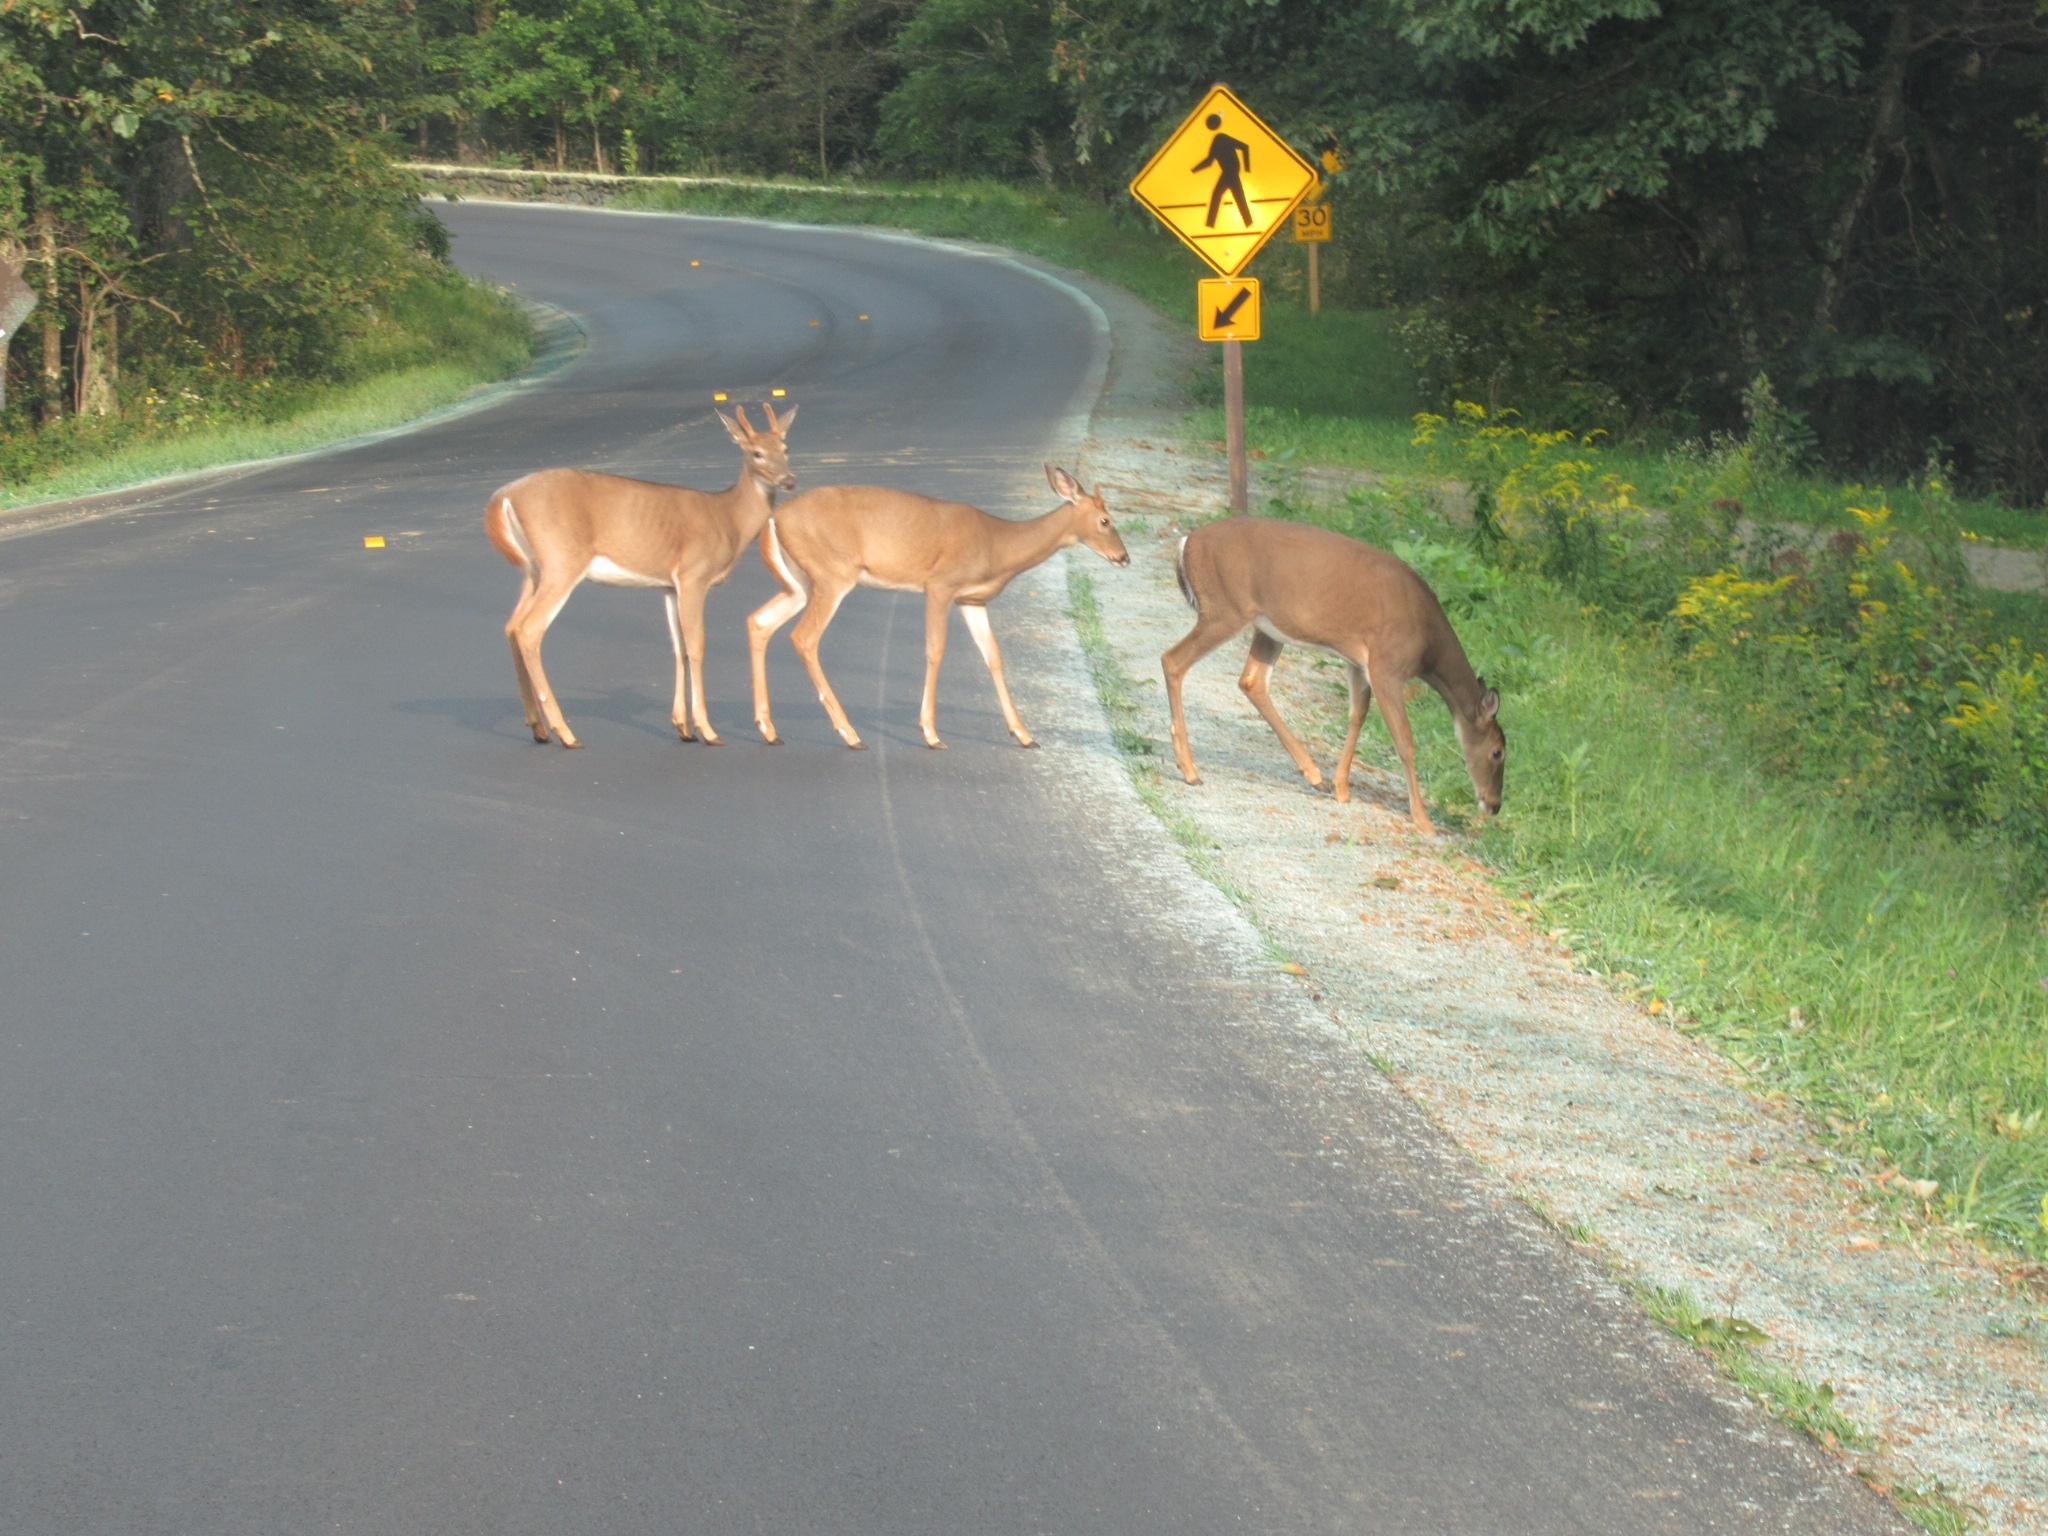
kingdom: Animalia
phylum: Chordata
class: Mammalia
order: Artiodactyla
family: Cervidae
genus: Odocoileus
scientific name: Odocoileus virginianus
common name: White-tailed deer
